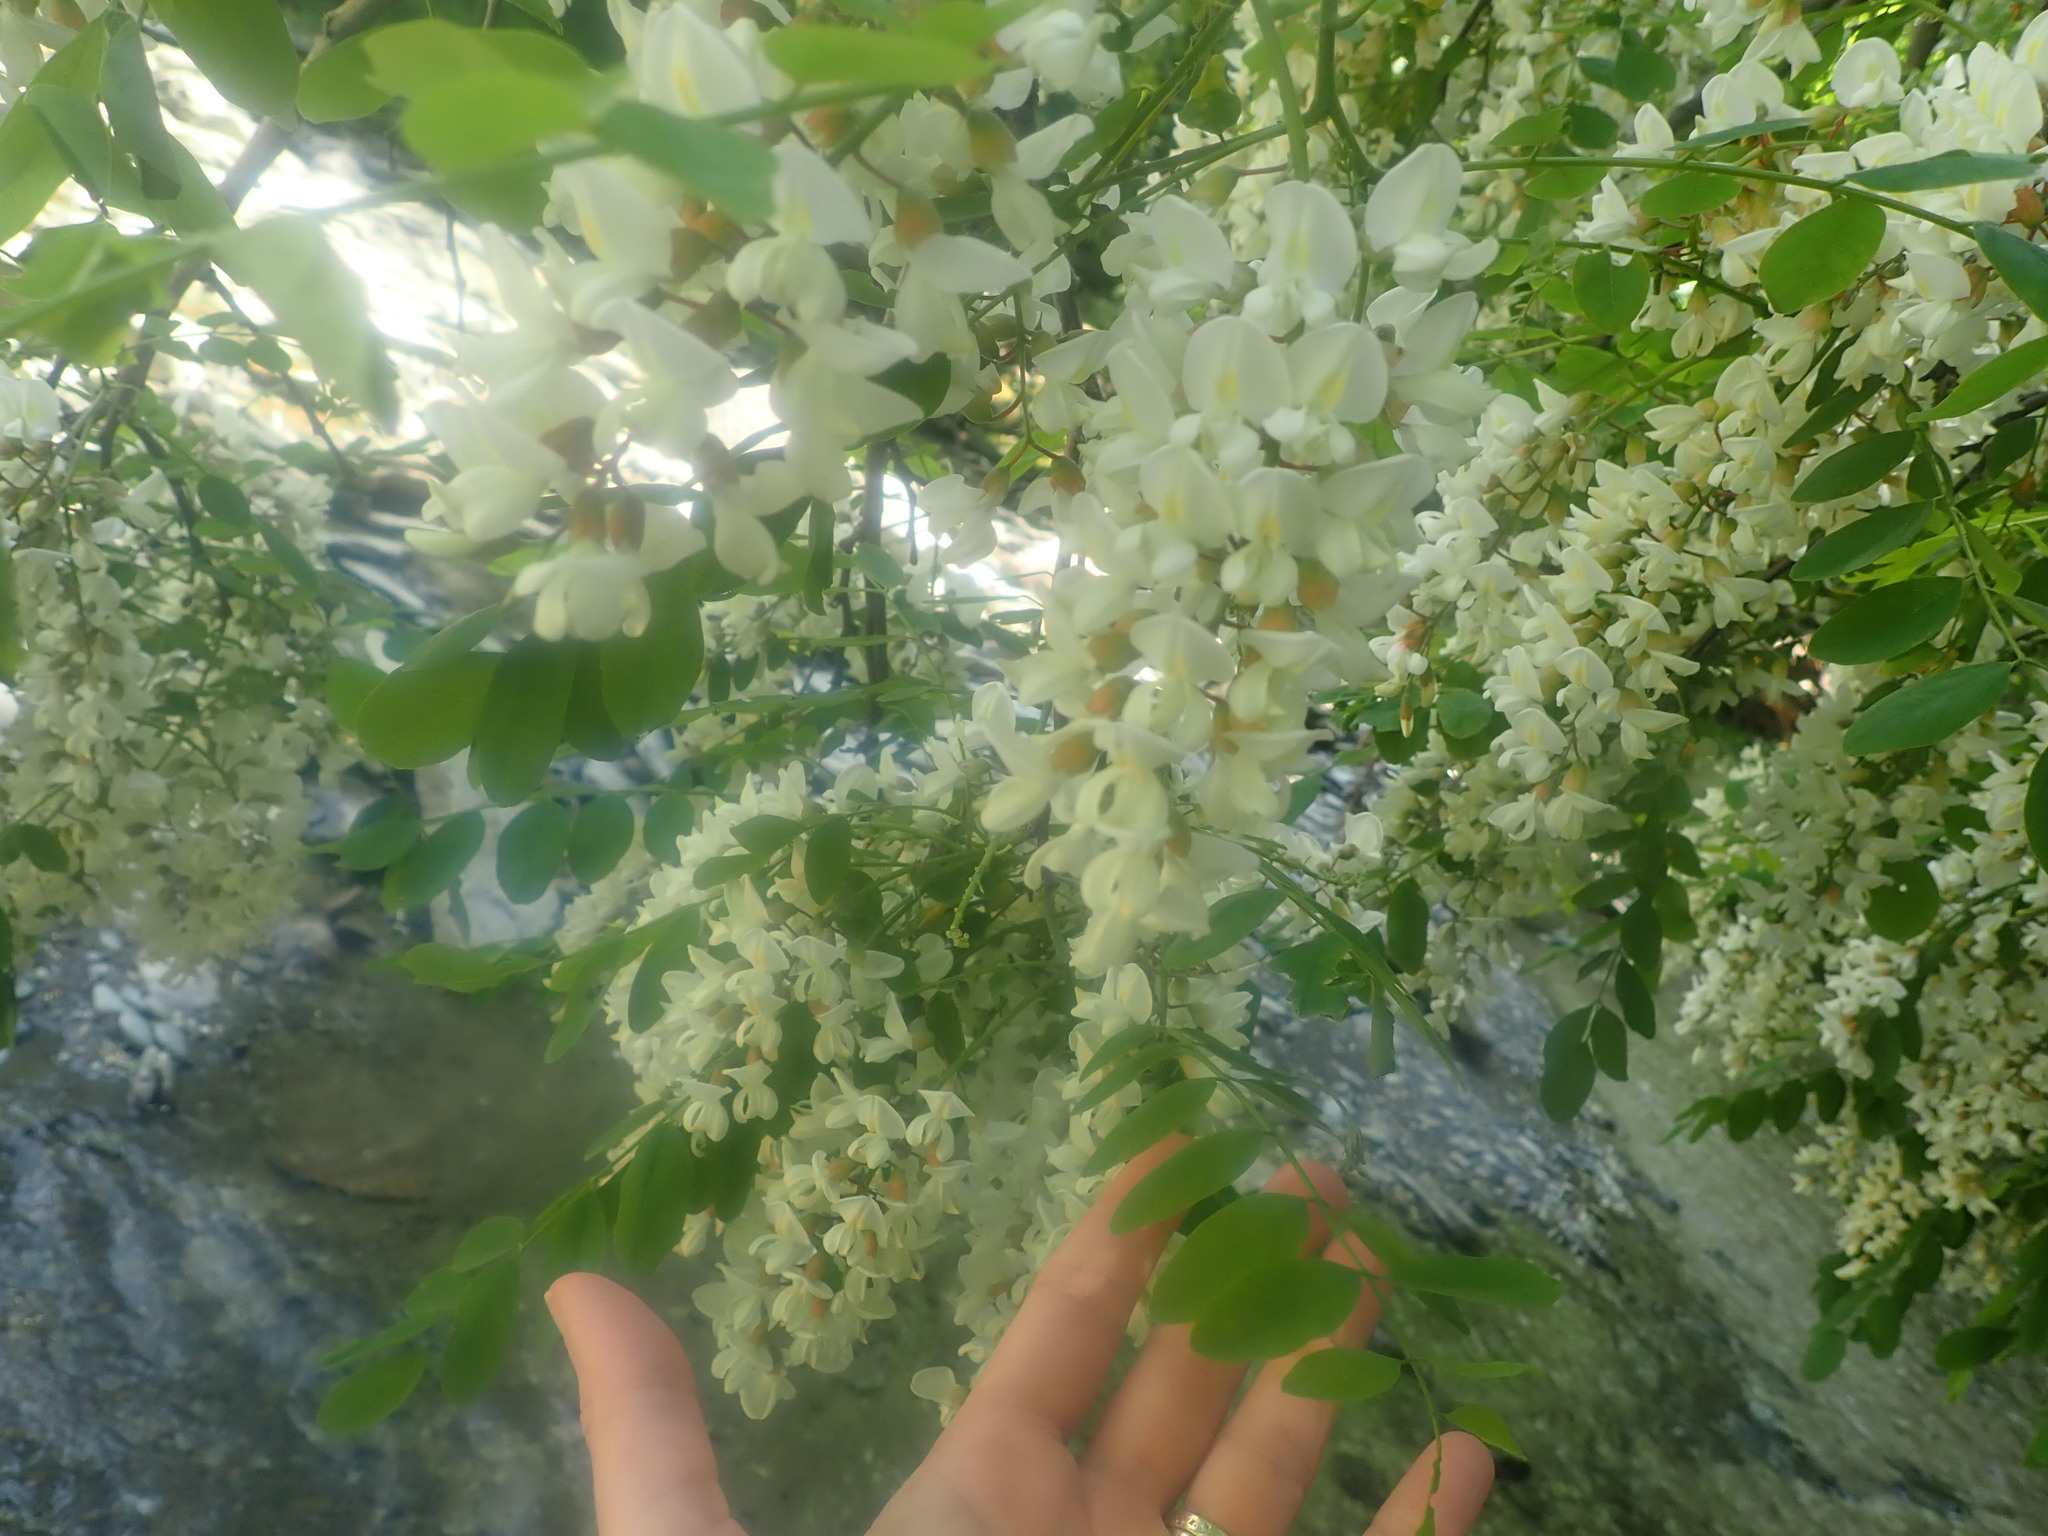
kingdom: Plantae
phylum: Tracheophyta
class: Magnoliopsida
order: Fabales
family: Fabaceae
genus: Robinia
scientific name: Robinia pseudoacacia
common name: Black locust
